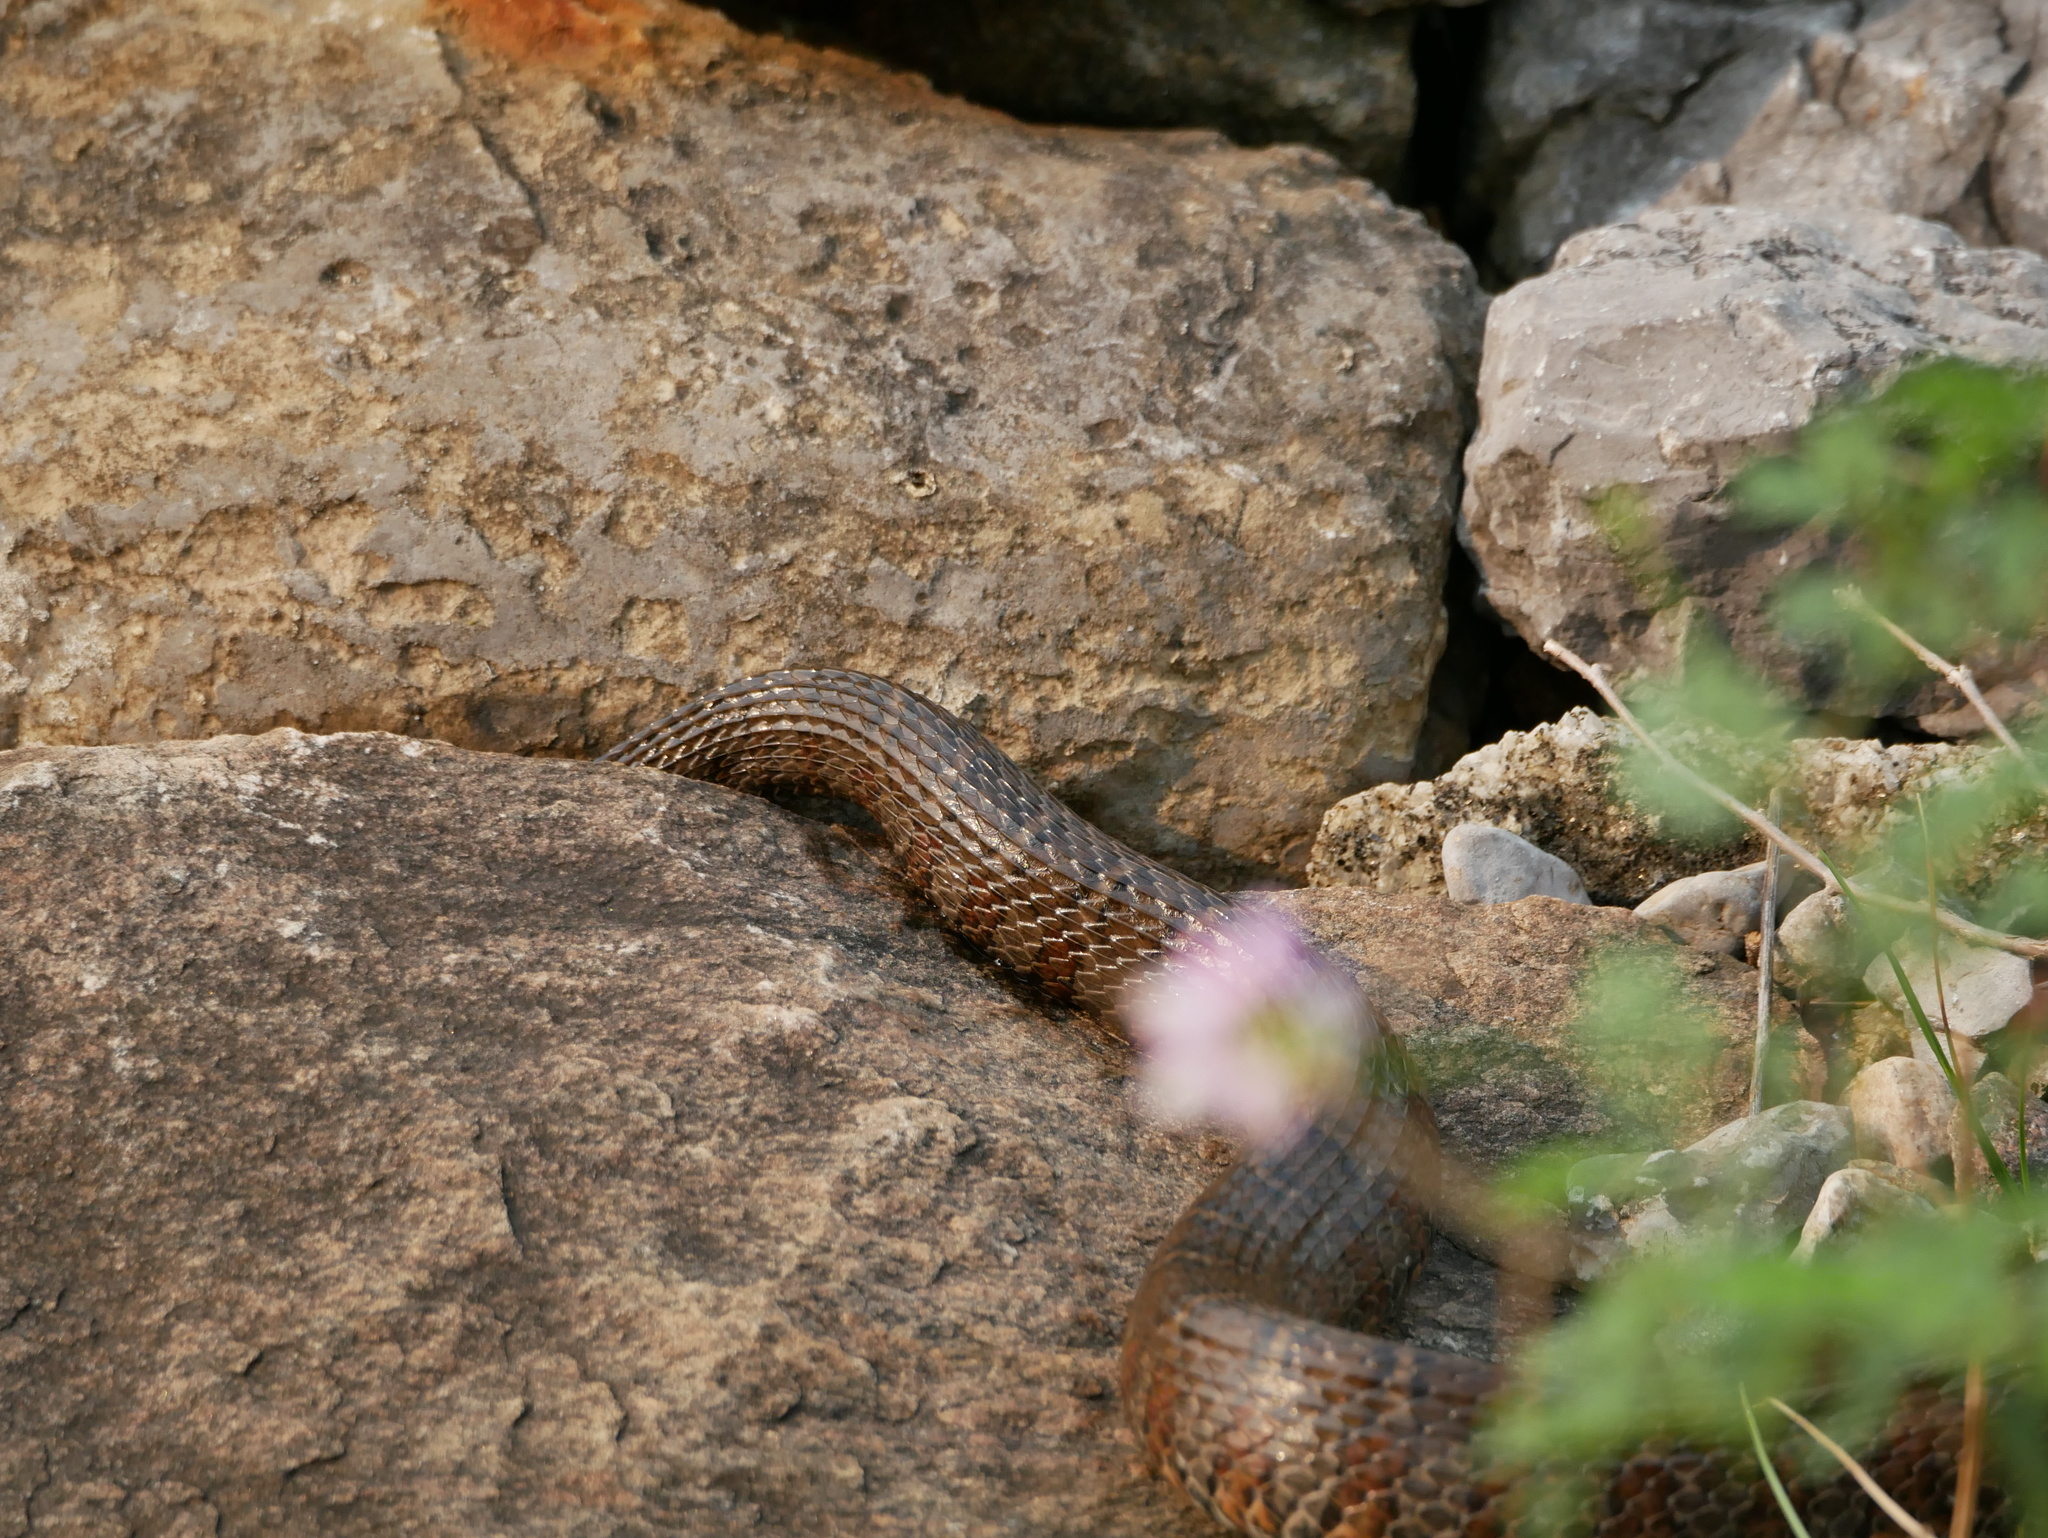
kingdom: Animalia
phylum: Chordata
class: Squamata
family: Colubridae
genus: Nerodia
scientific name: Nerodia sipedon
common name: Northern water snake
